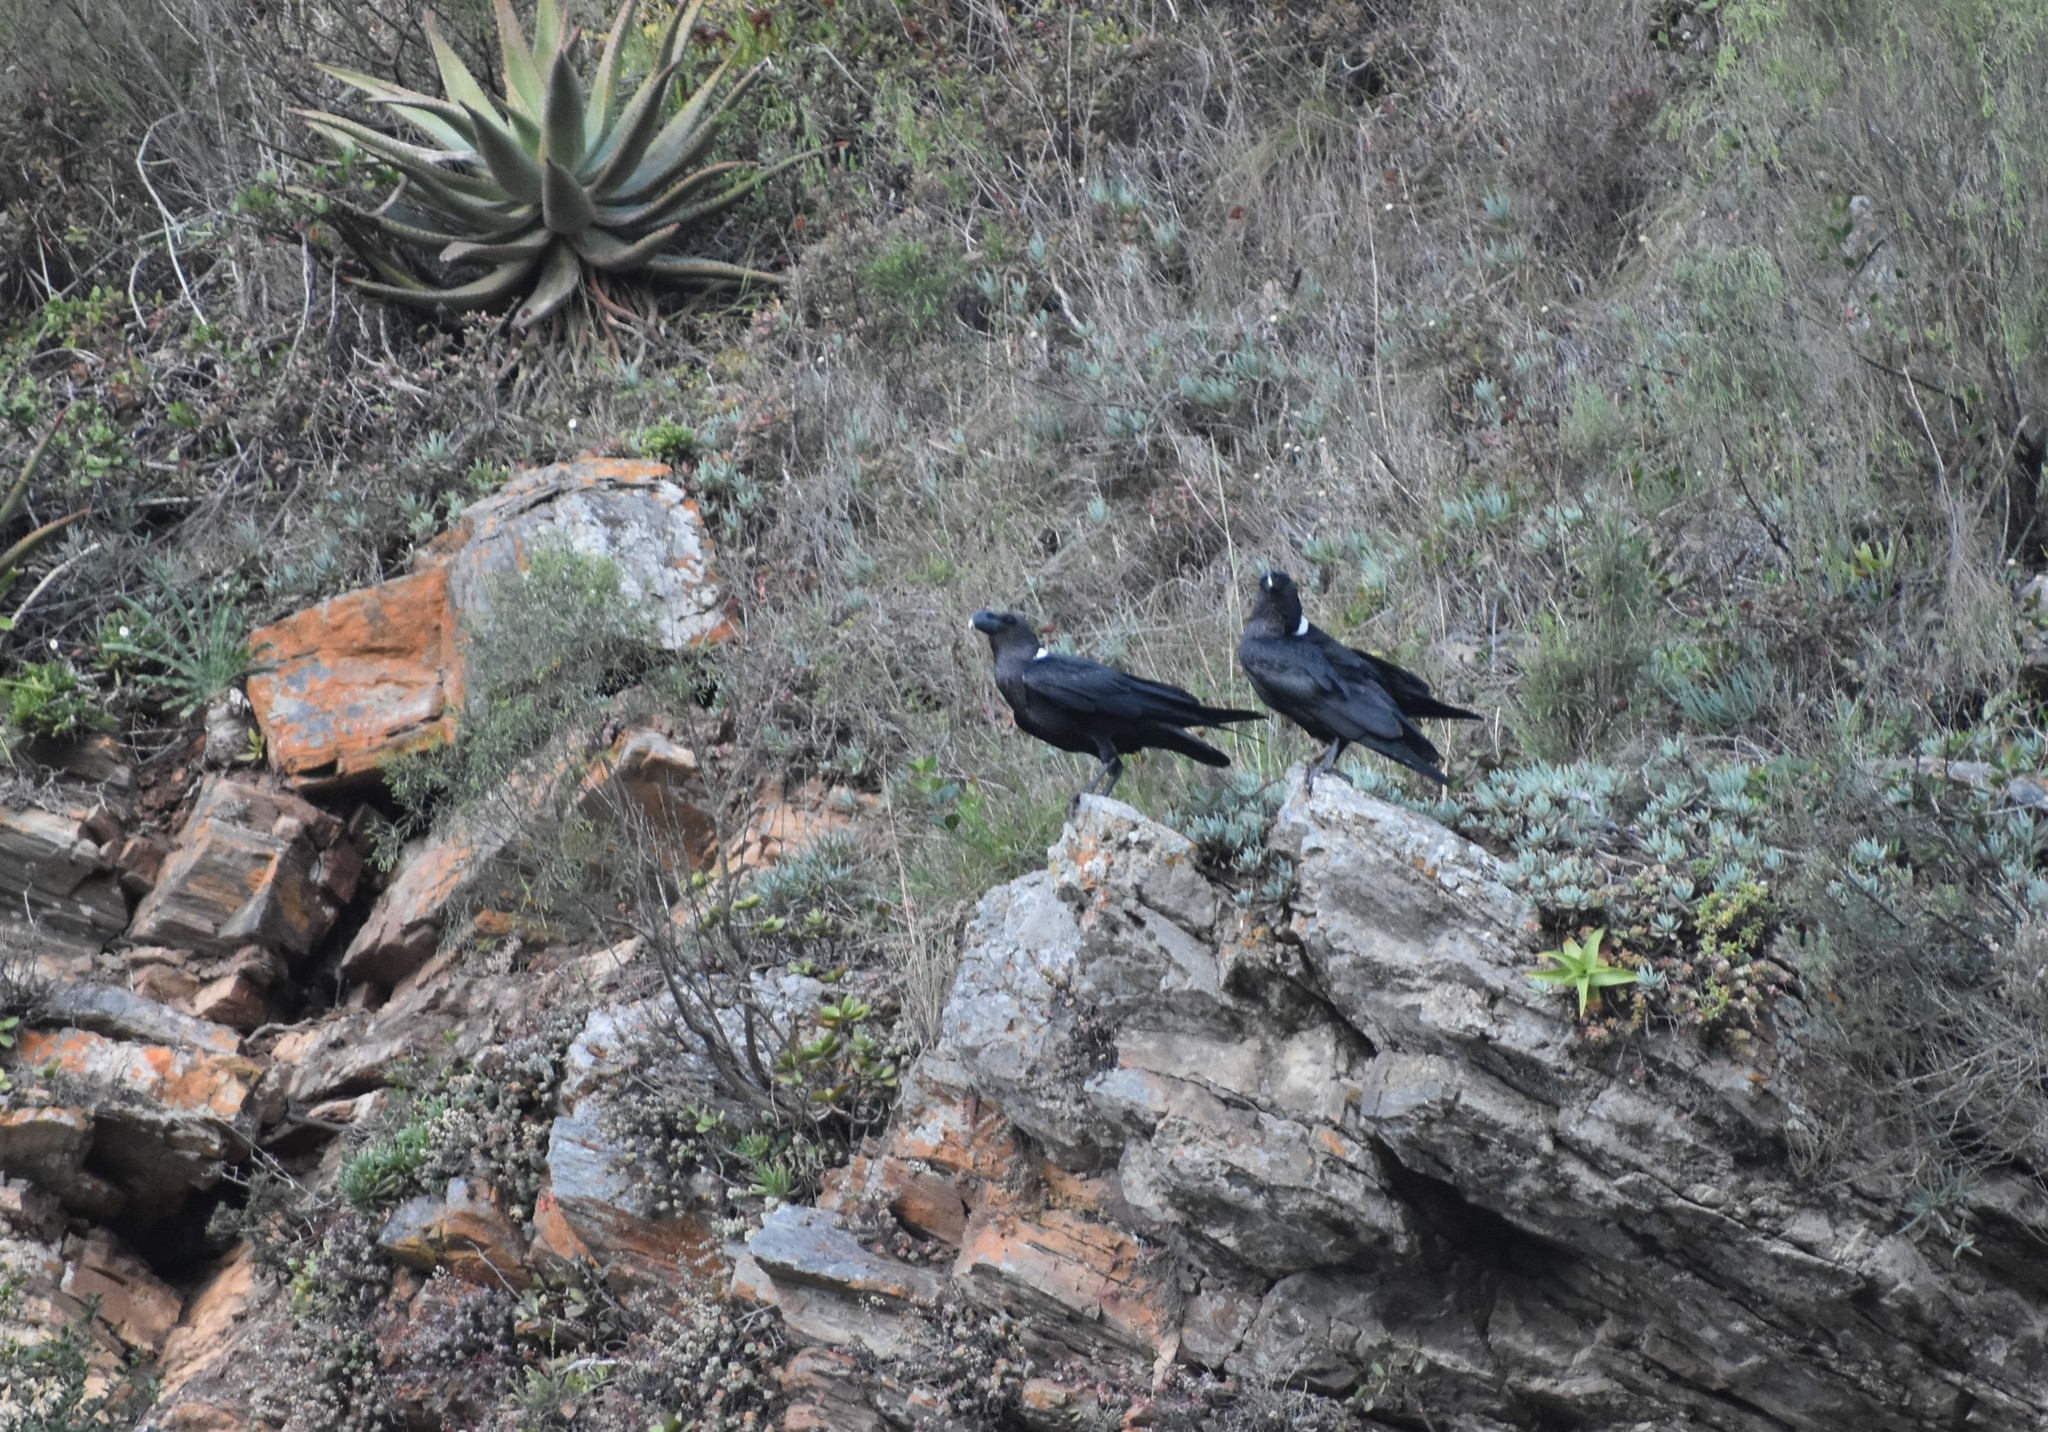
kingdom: Animalia
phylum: Chordata
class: Aves
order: Passeriformes
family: Corvidae
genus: Corvus
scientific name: Corvus albicollis
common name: White-necked raven
